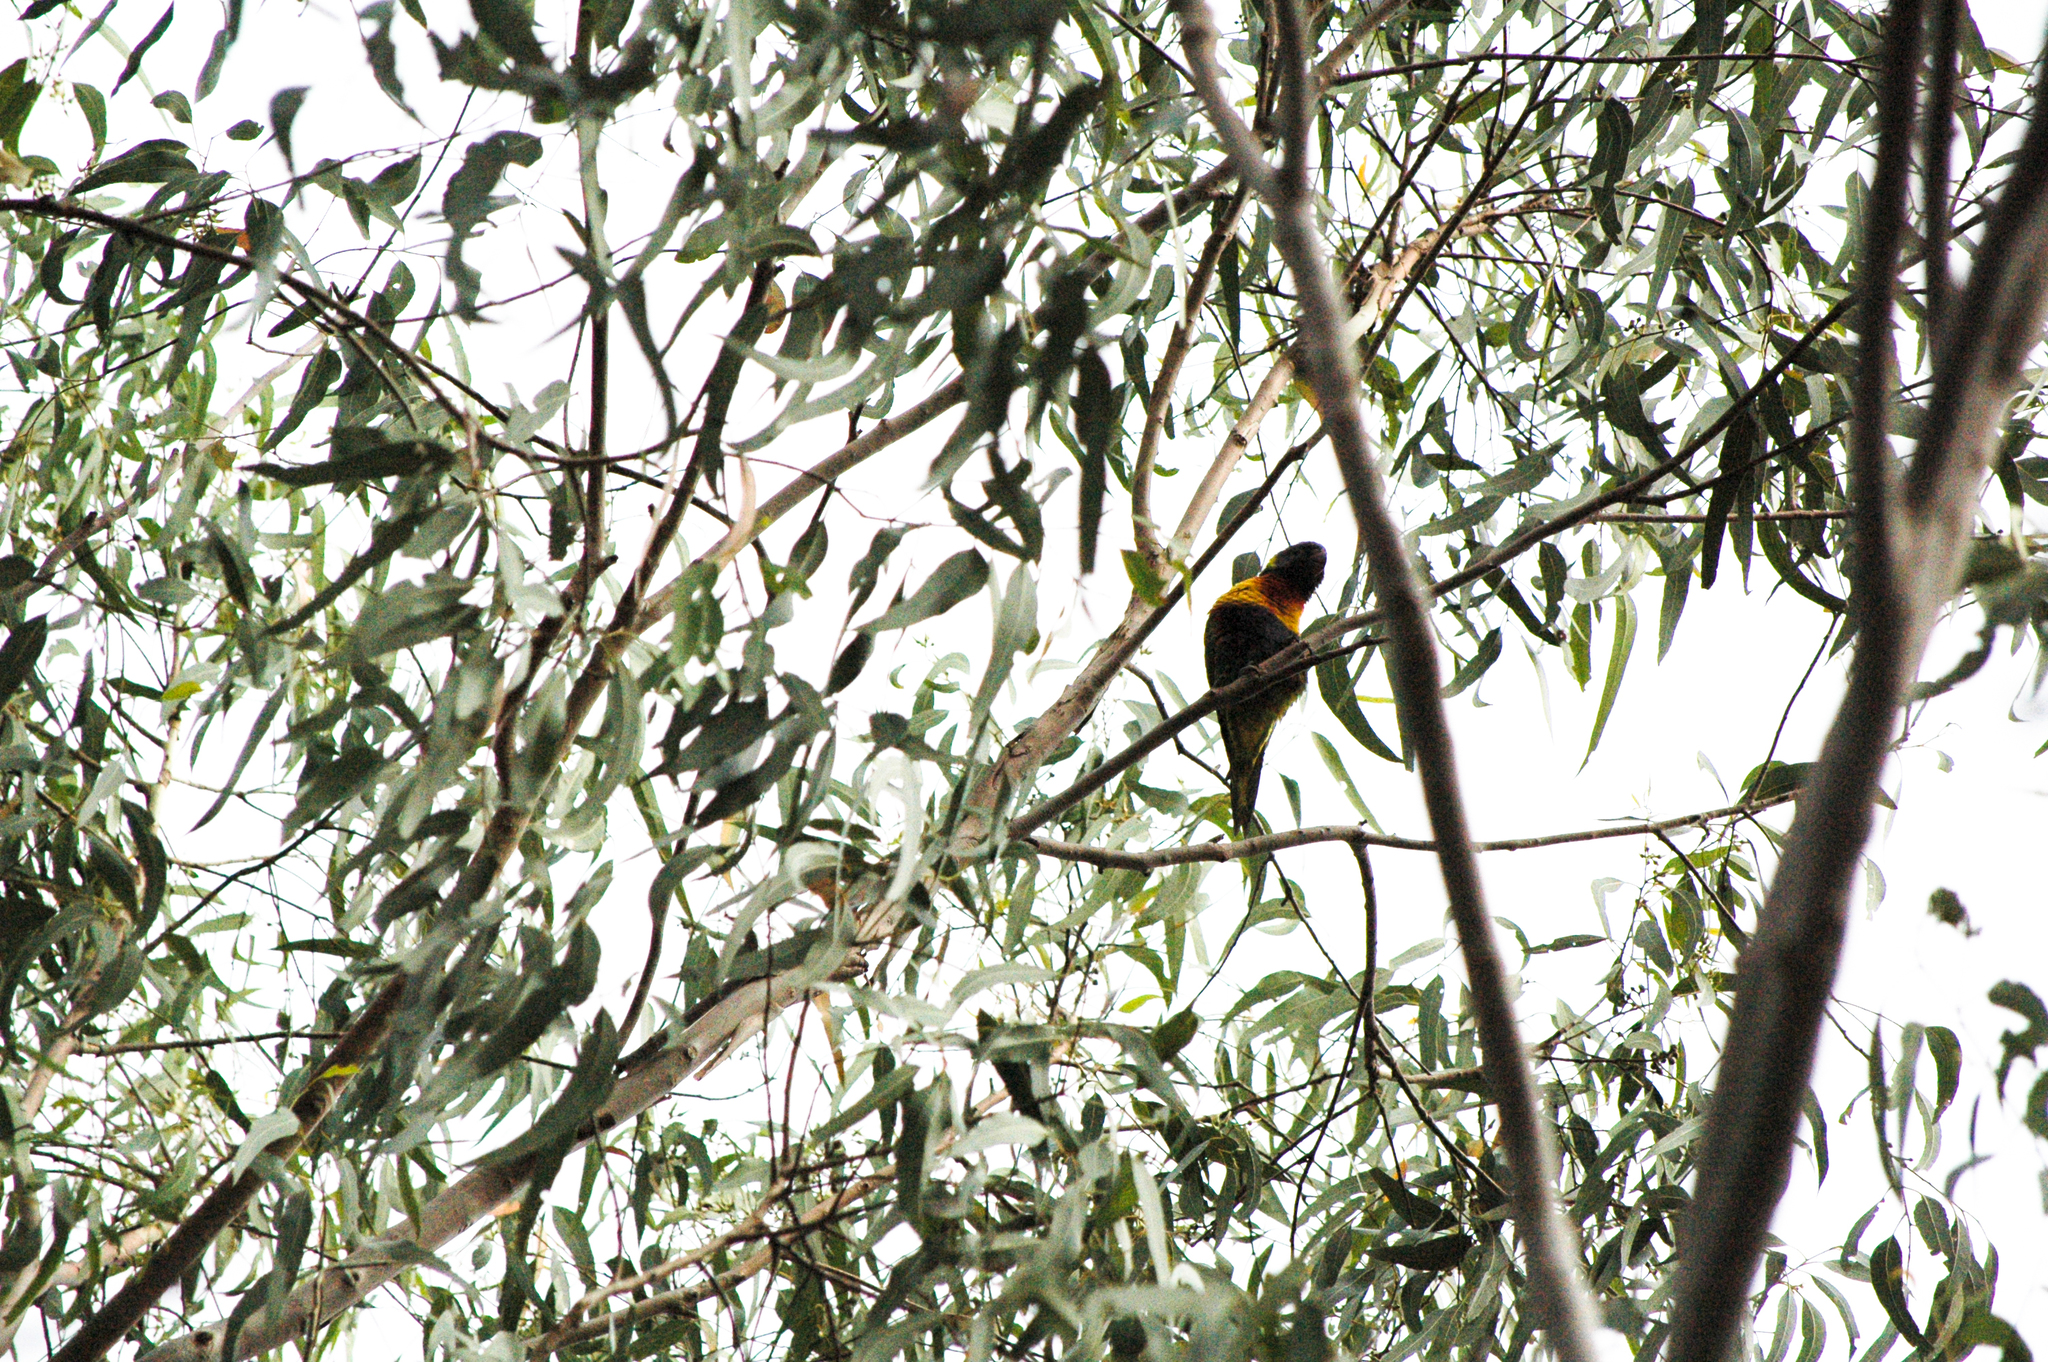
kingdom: Animalia
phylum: Chordata
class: Aves
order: Psittaciformes
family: Psittacidae
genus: Trichoglossus
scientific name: Trichoglossus haematodus
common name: Coconut lorikeet
